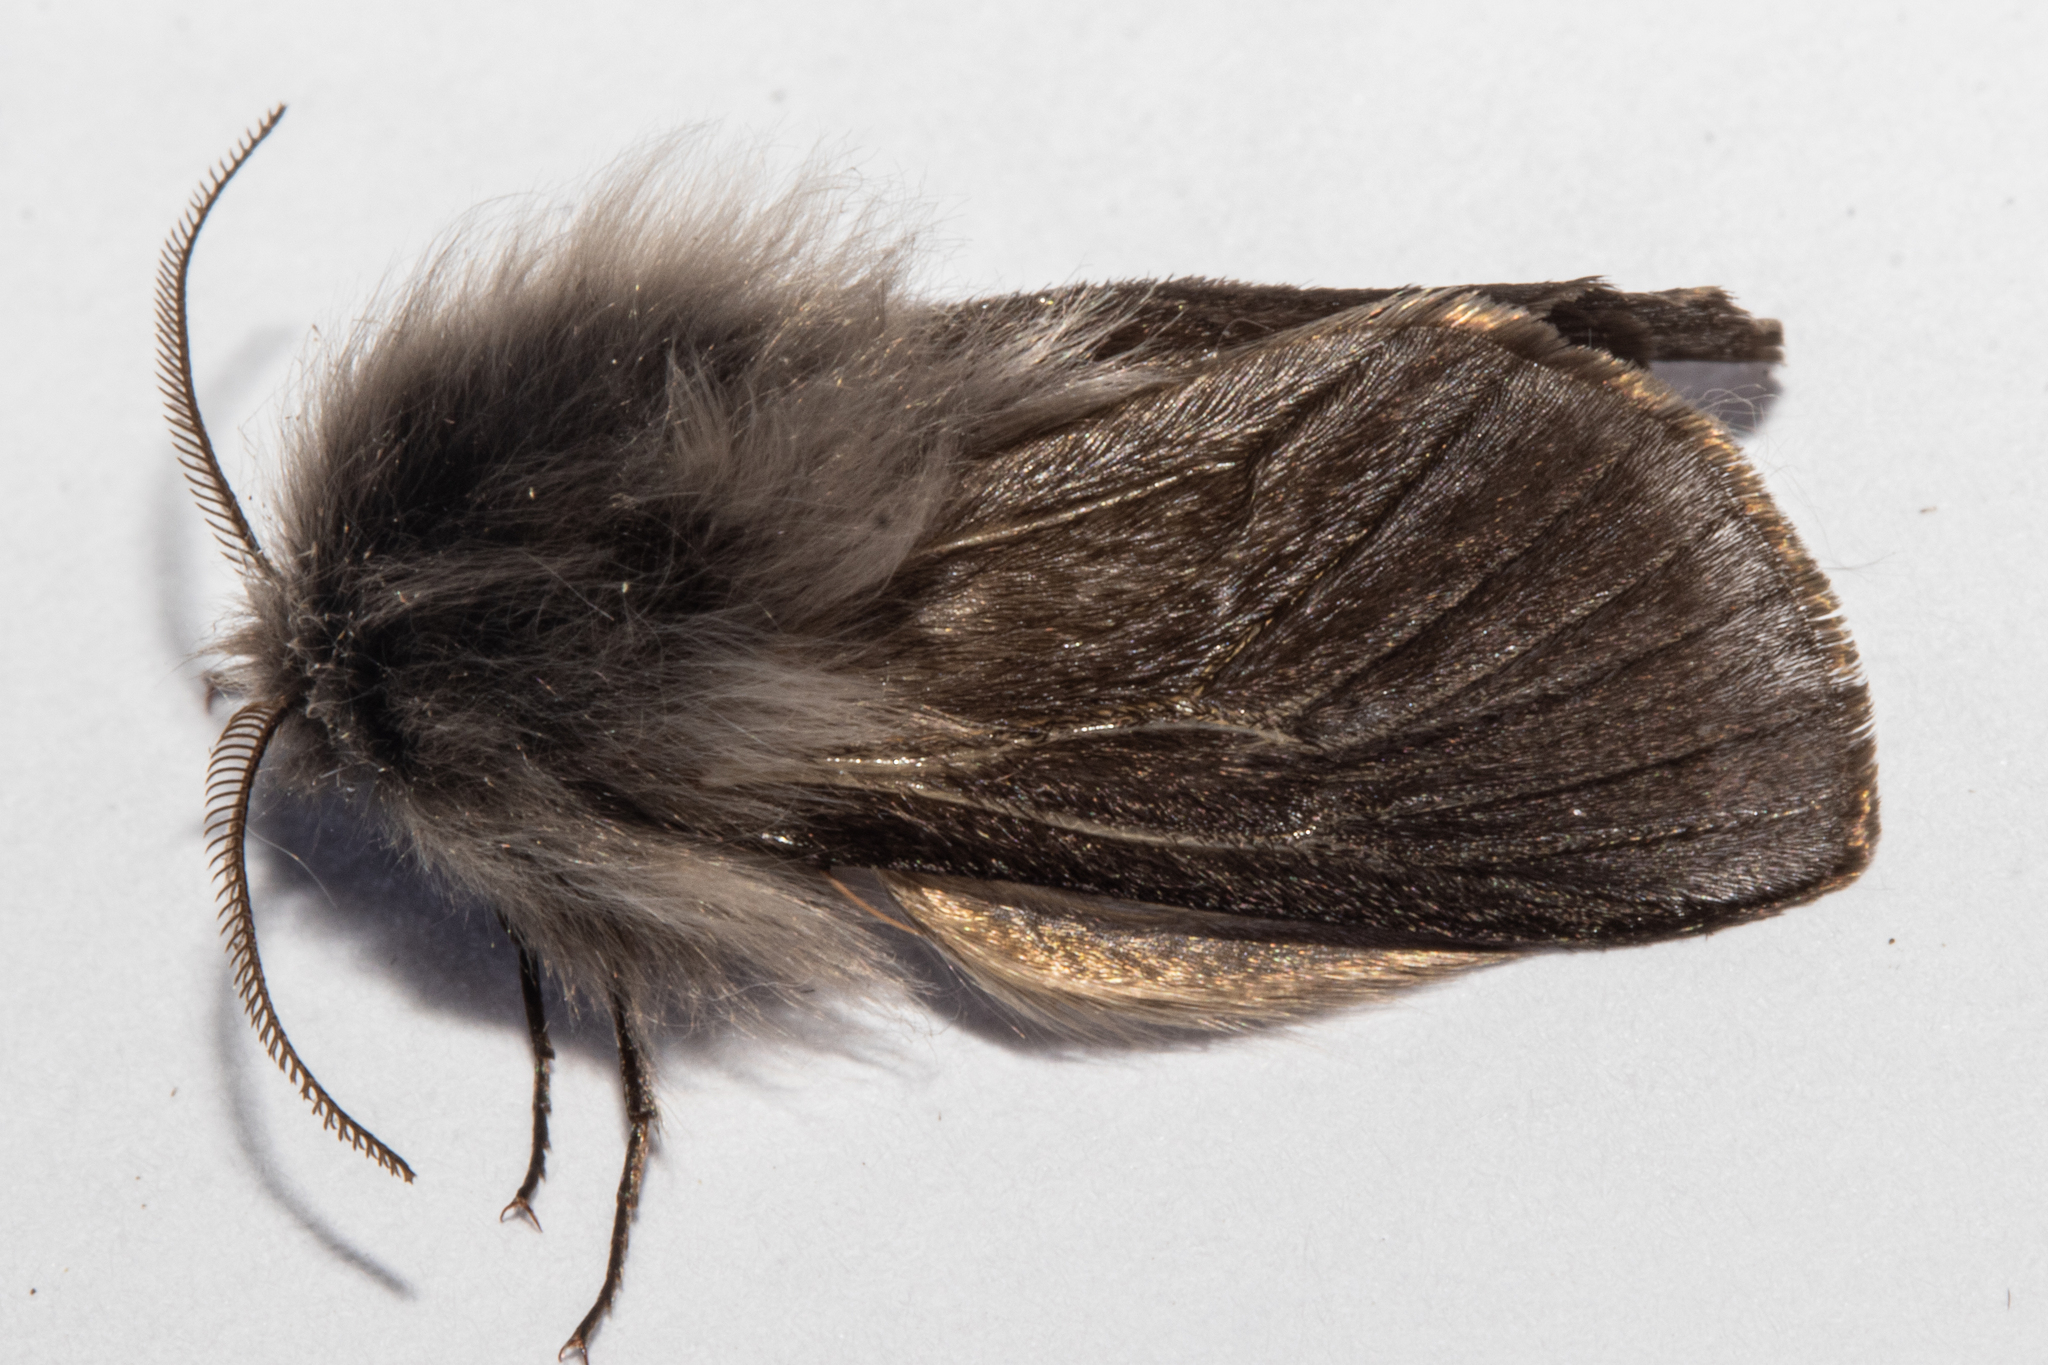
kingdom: Animalia
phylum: Arthropoda
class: Insecta
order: Lepidoptera
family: Psychidae
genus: Orophora
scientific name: Orophora unicolor
